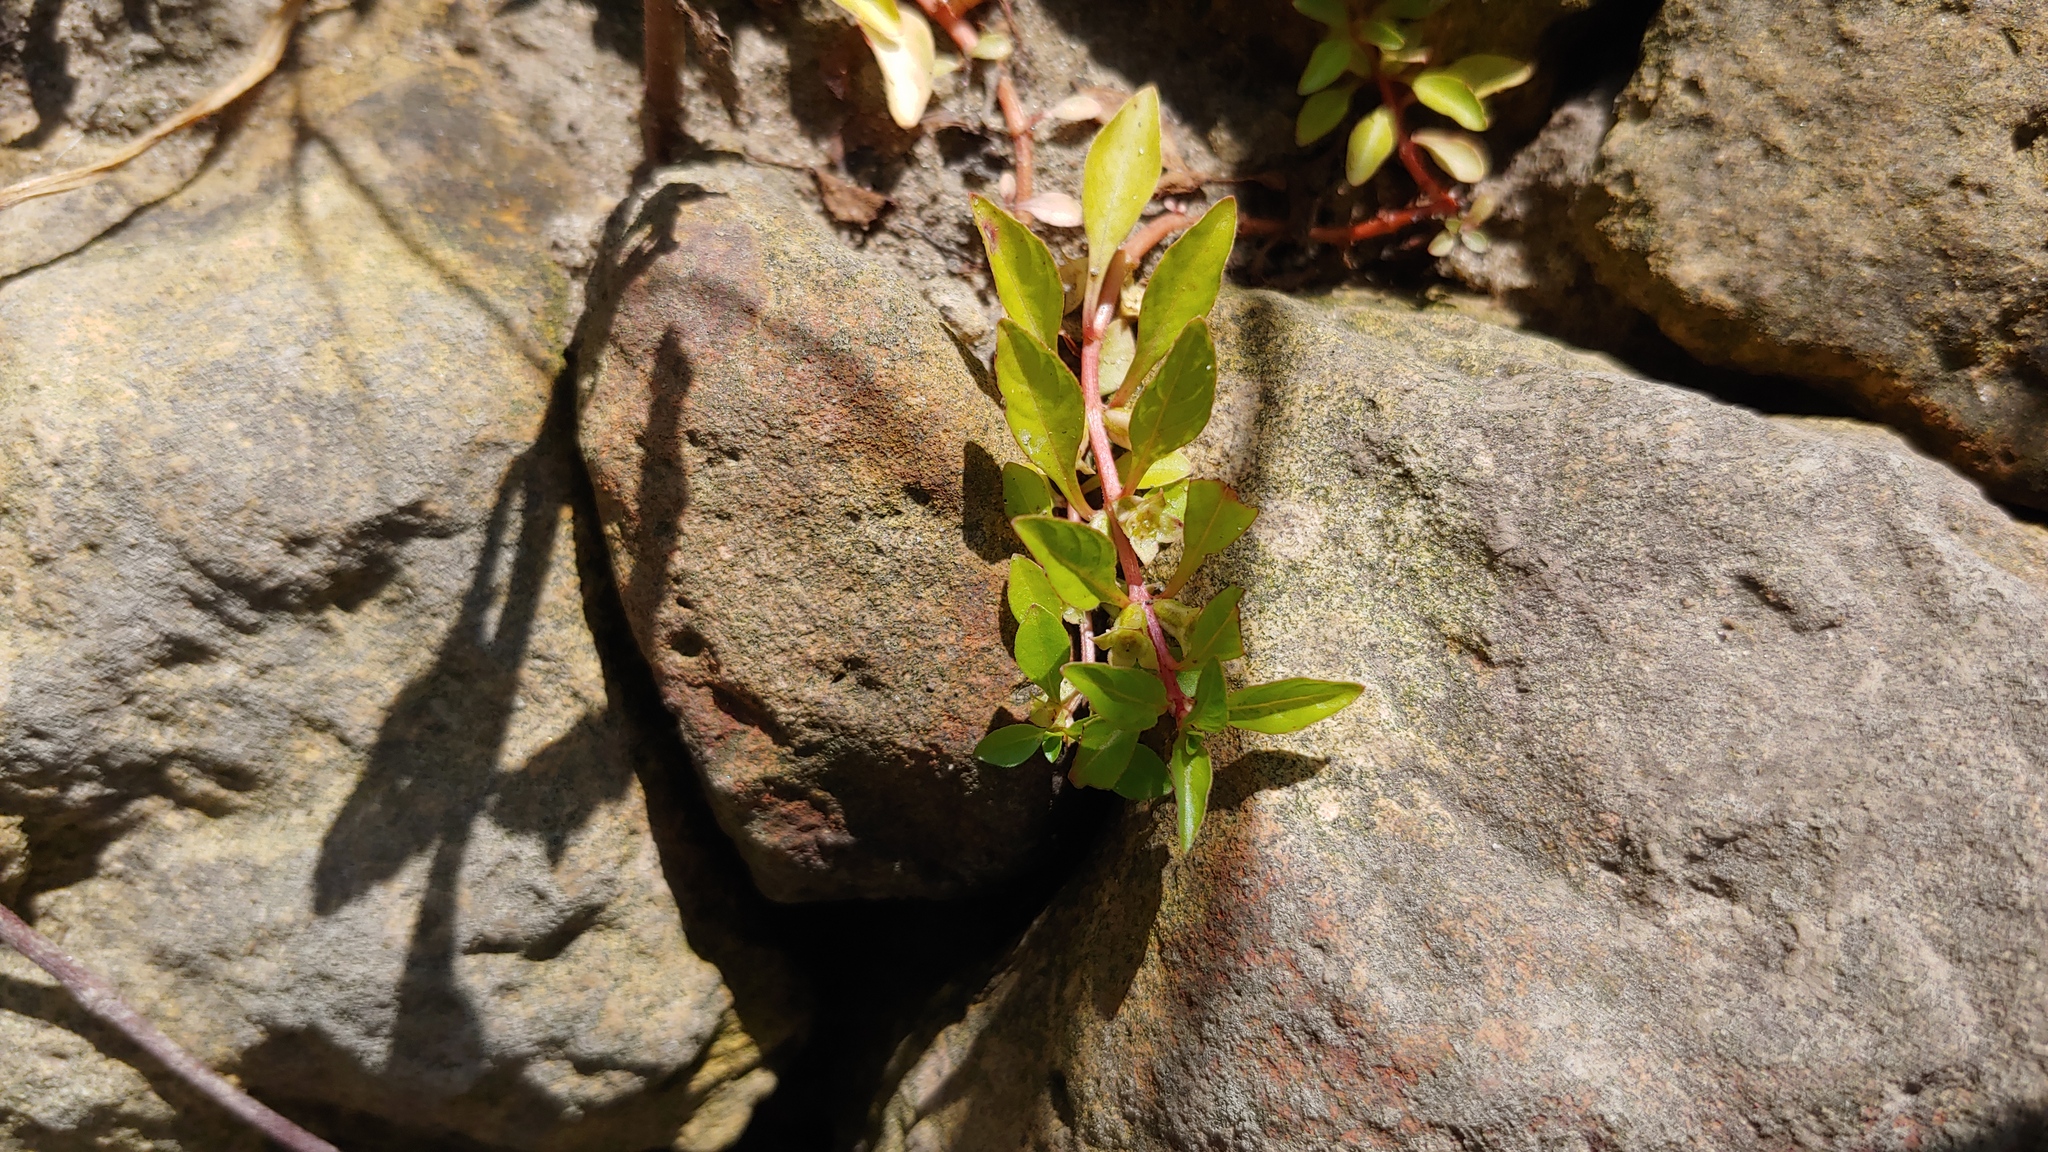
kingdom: Plantae
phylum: Tracheophyta
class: Magnoliopsida
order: Myrtales
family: Onagraceae
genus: Ludwigia
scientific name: Ludwigia palustris
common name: Hampshire-purslane
